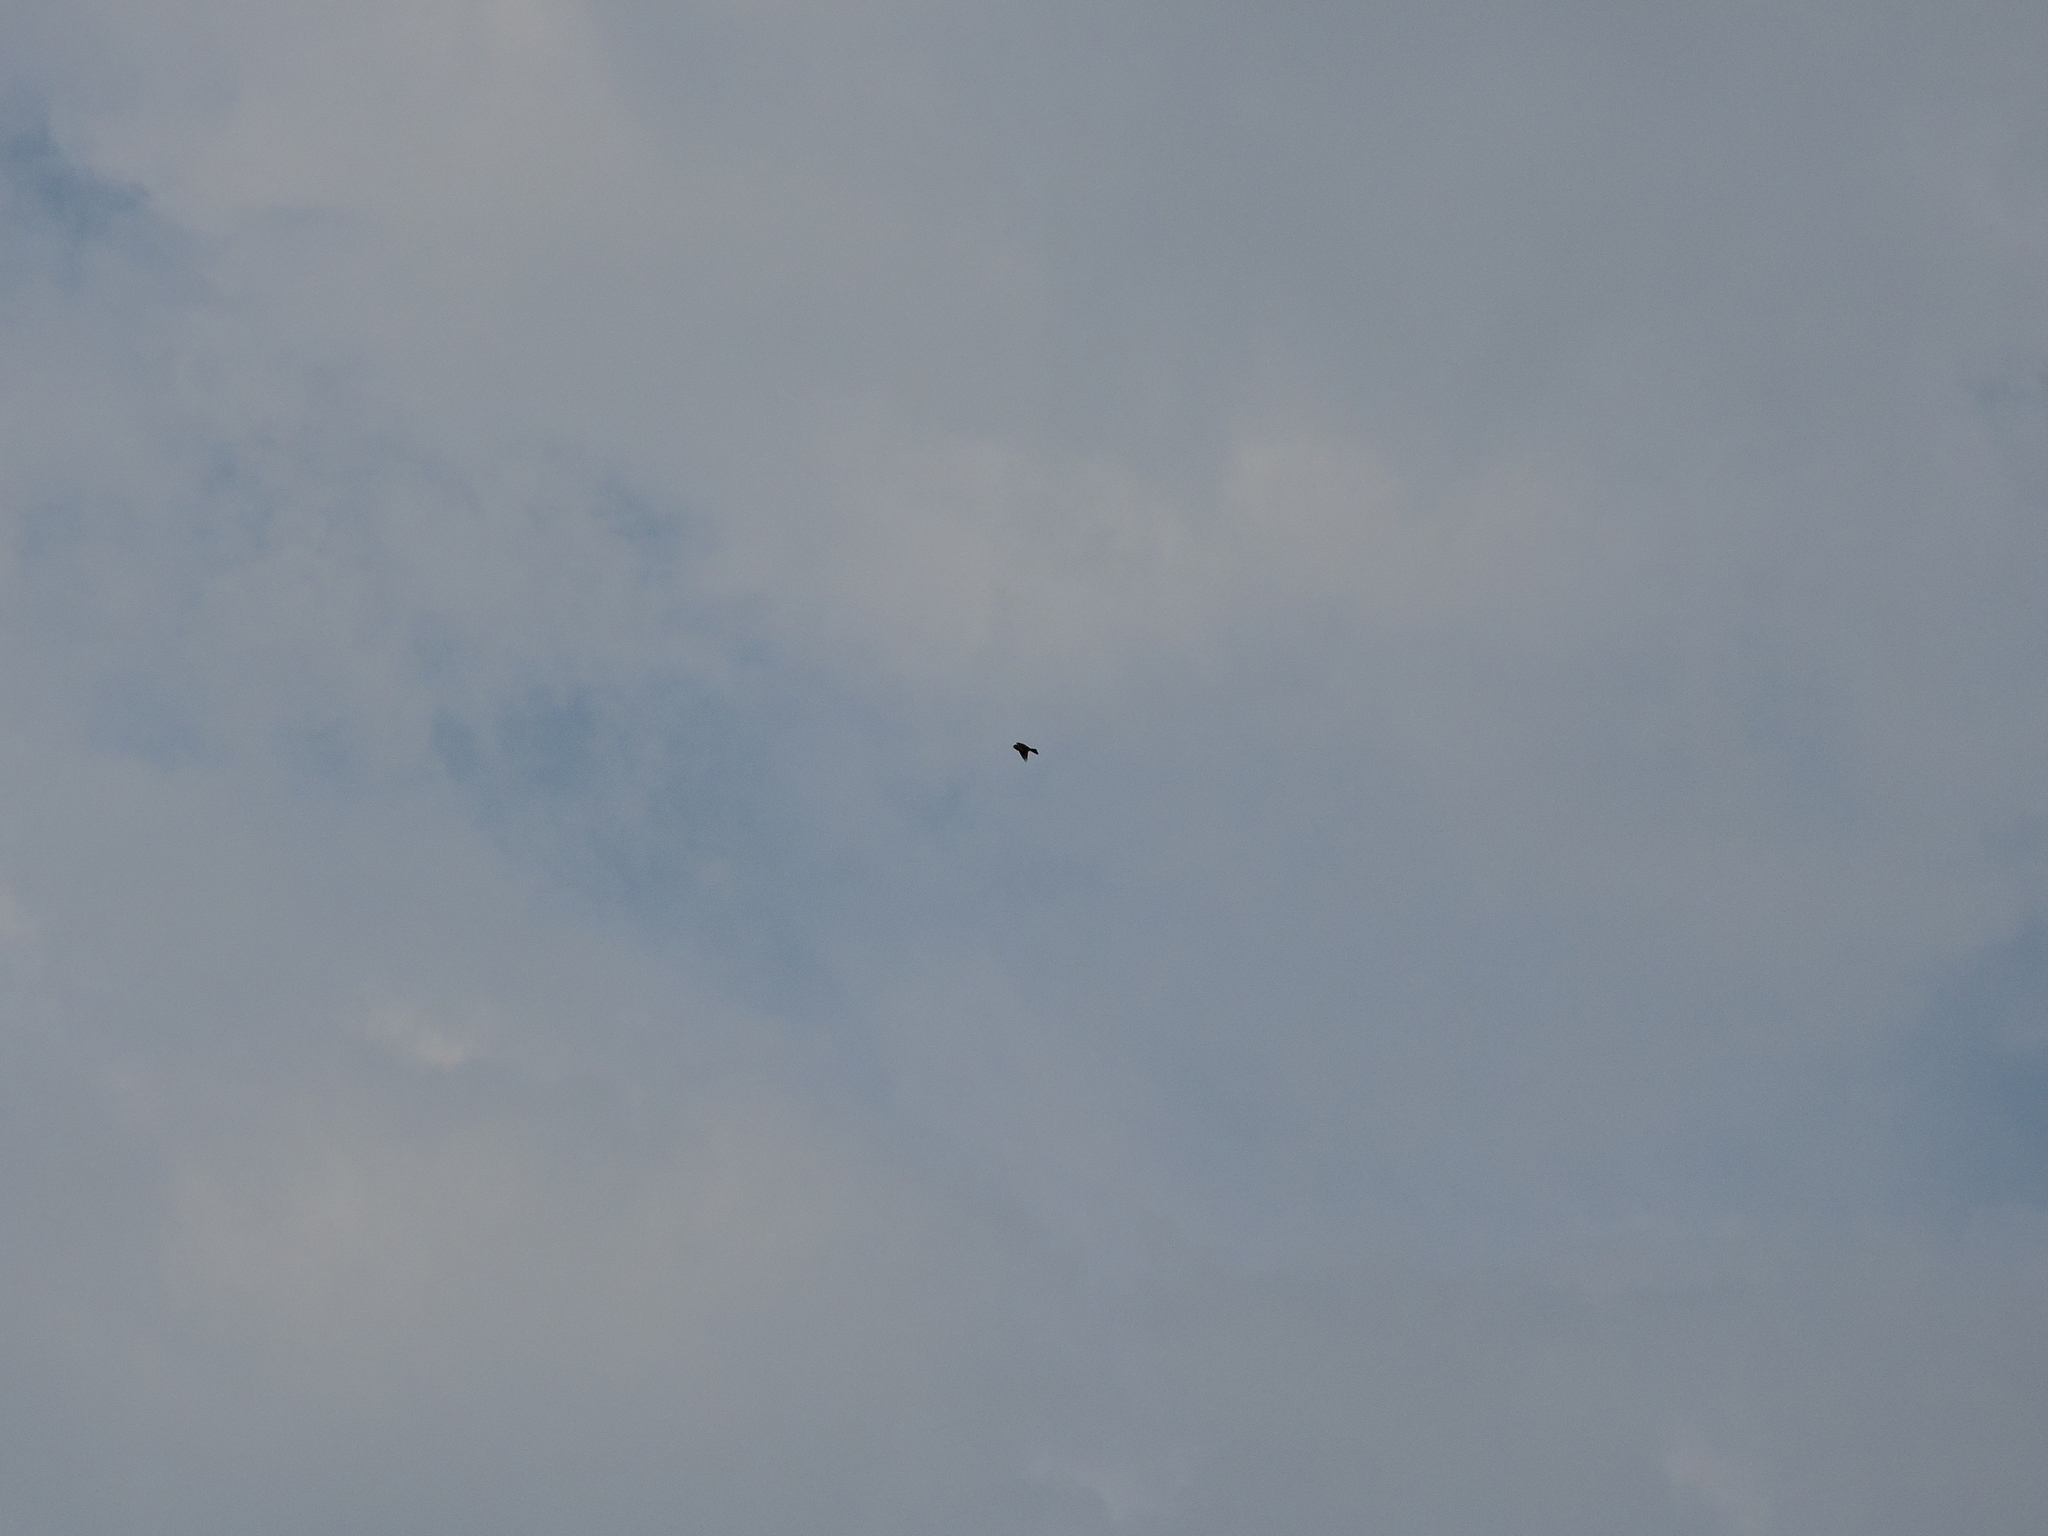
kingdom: Animalia
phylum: Chordata
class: Aves
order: Passeriformes
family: Alaudidae
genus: Alauda
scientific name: Alauda arvensis
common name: Eurasian skylark
